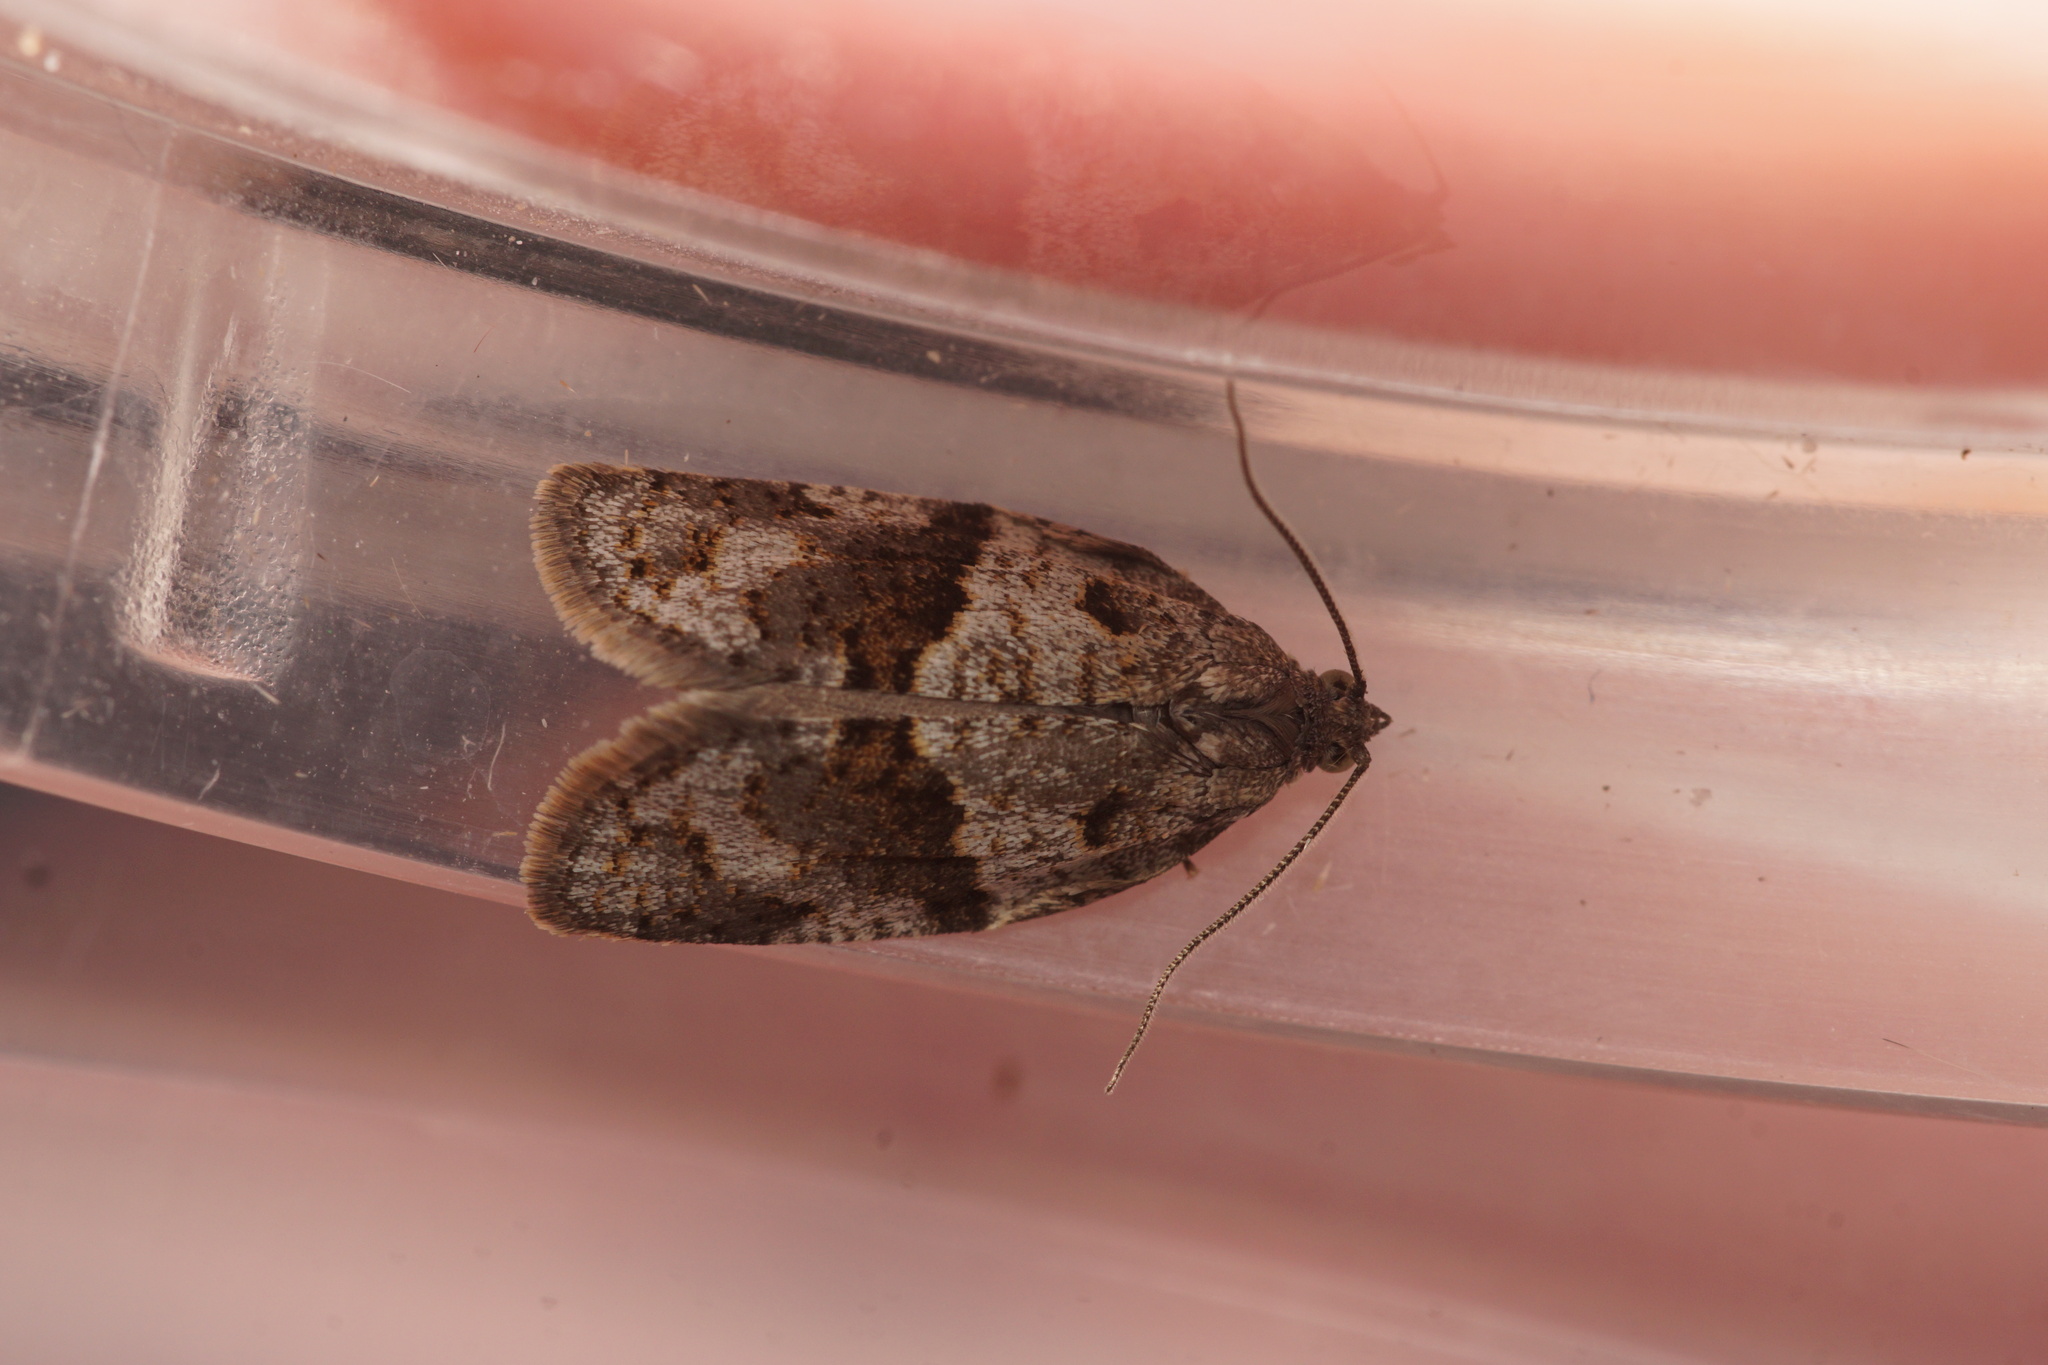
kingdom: Animalia
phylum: Arthropoda
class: Insecta
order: Lepidoptera
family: Tortricidae
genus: Syndemis
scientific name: Syndemis musculana
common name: Dark-barred twist
